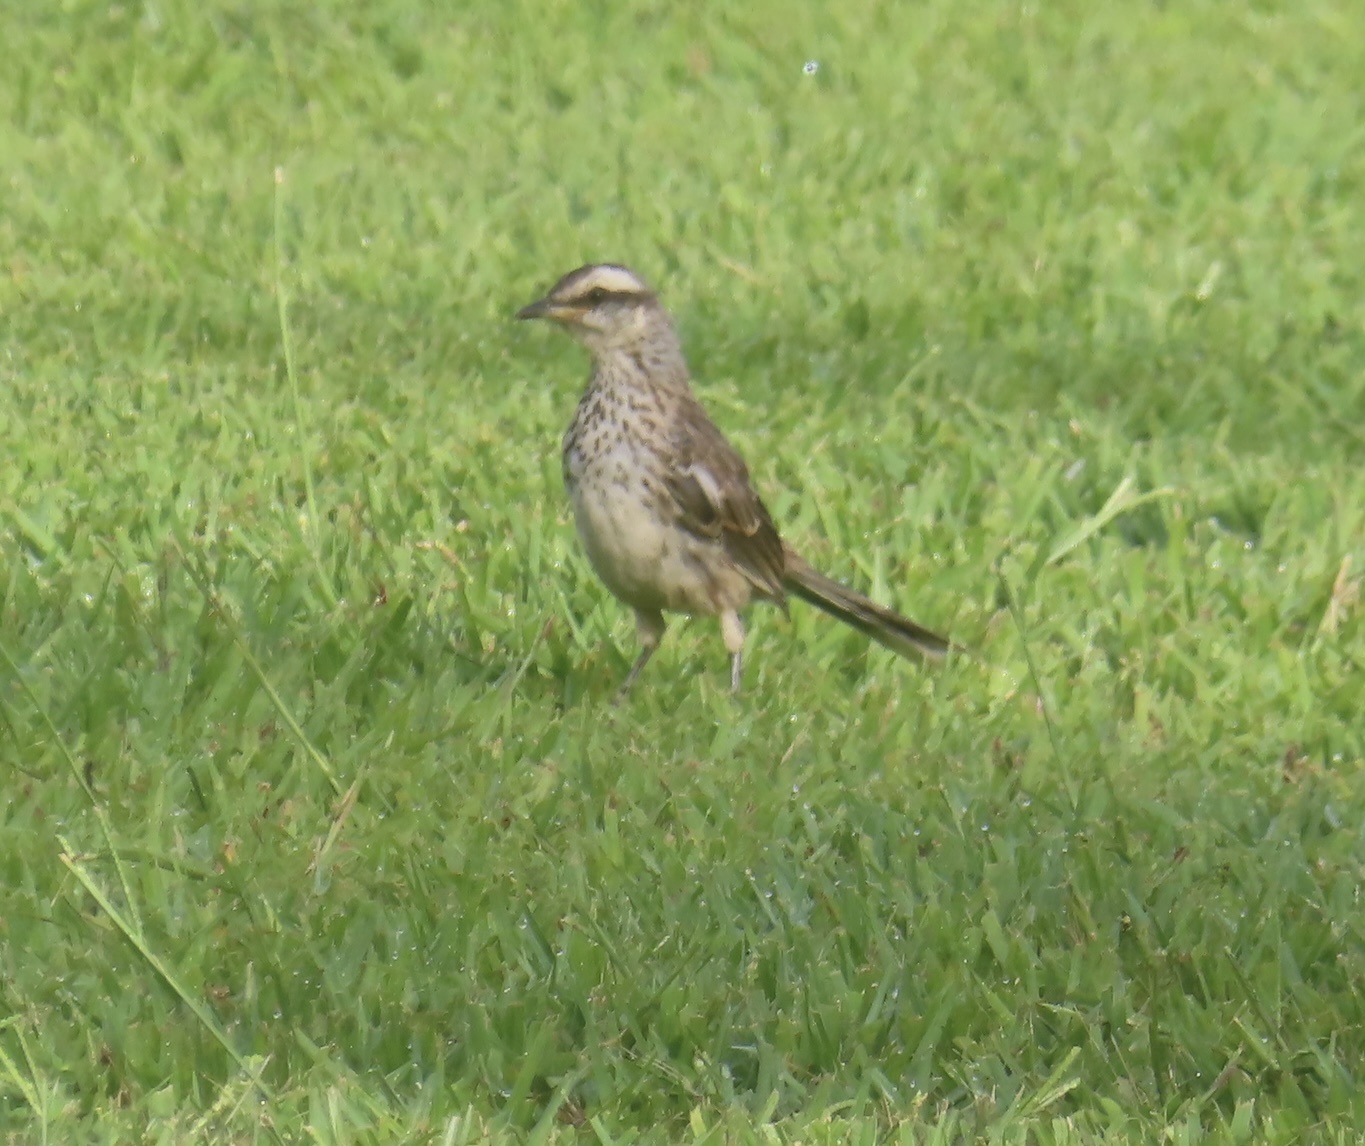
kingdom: Animalia
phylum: Chordata
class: Aves
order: Passeriformes
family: Mimidae
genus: Mimus
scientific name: Mimus saturninus
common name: Chalk-browed mockingbird
